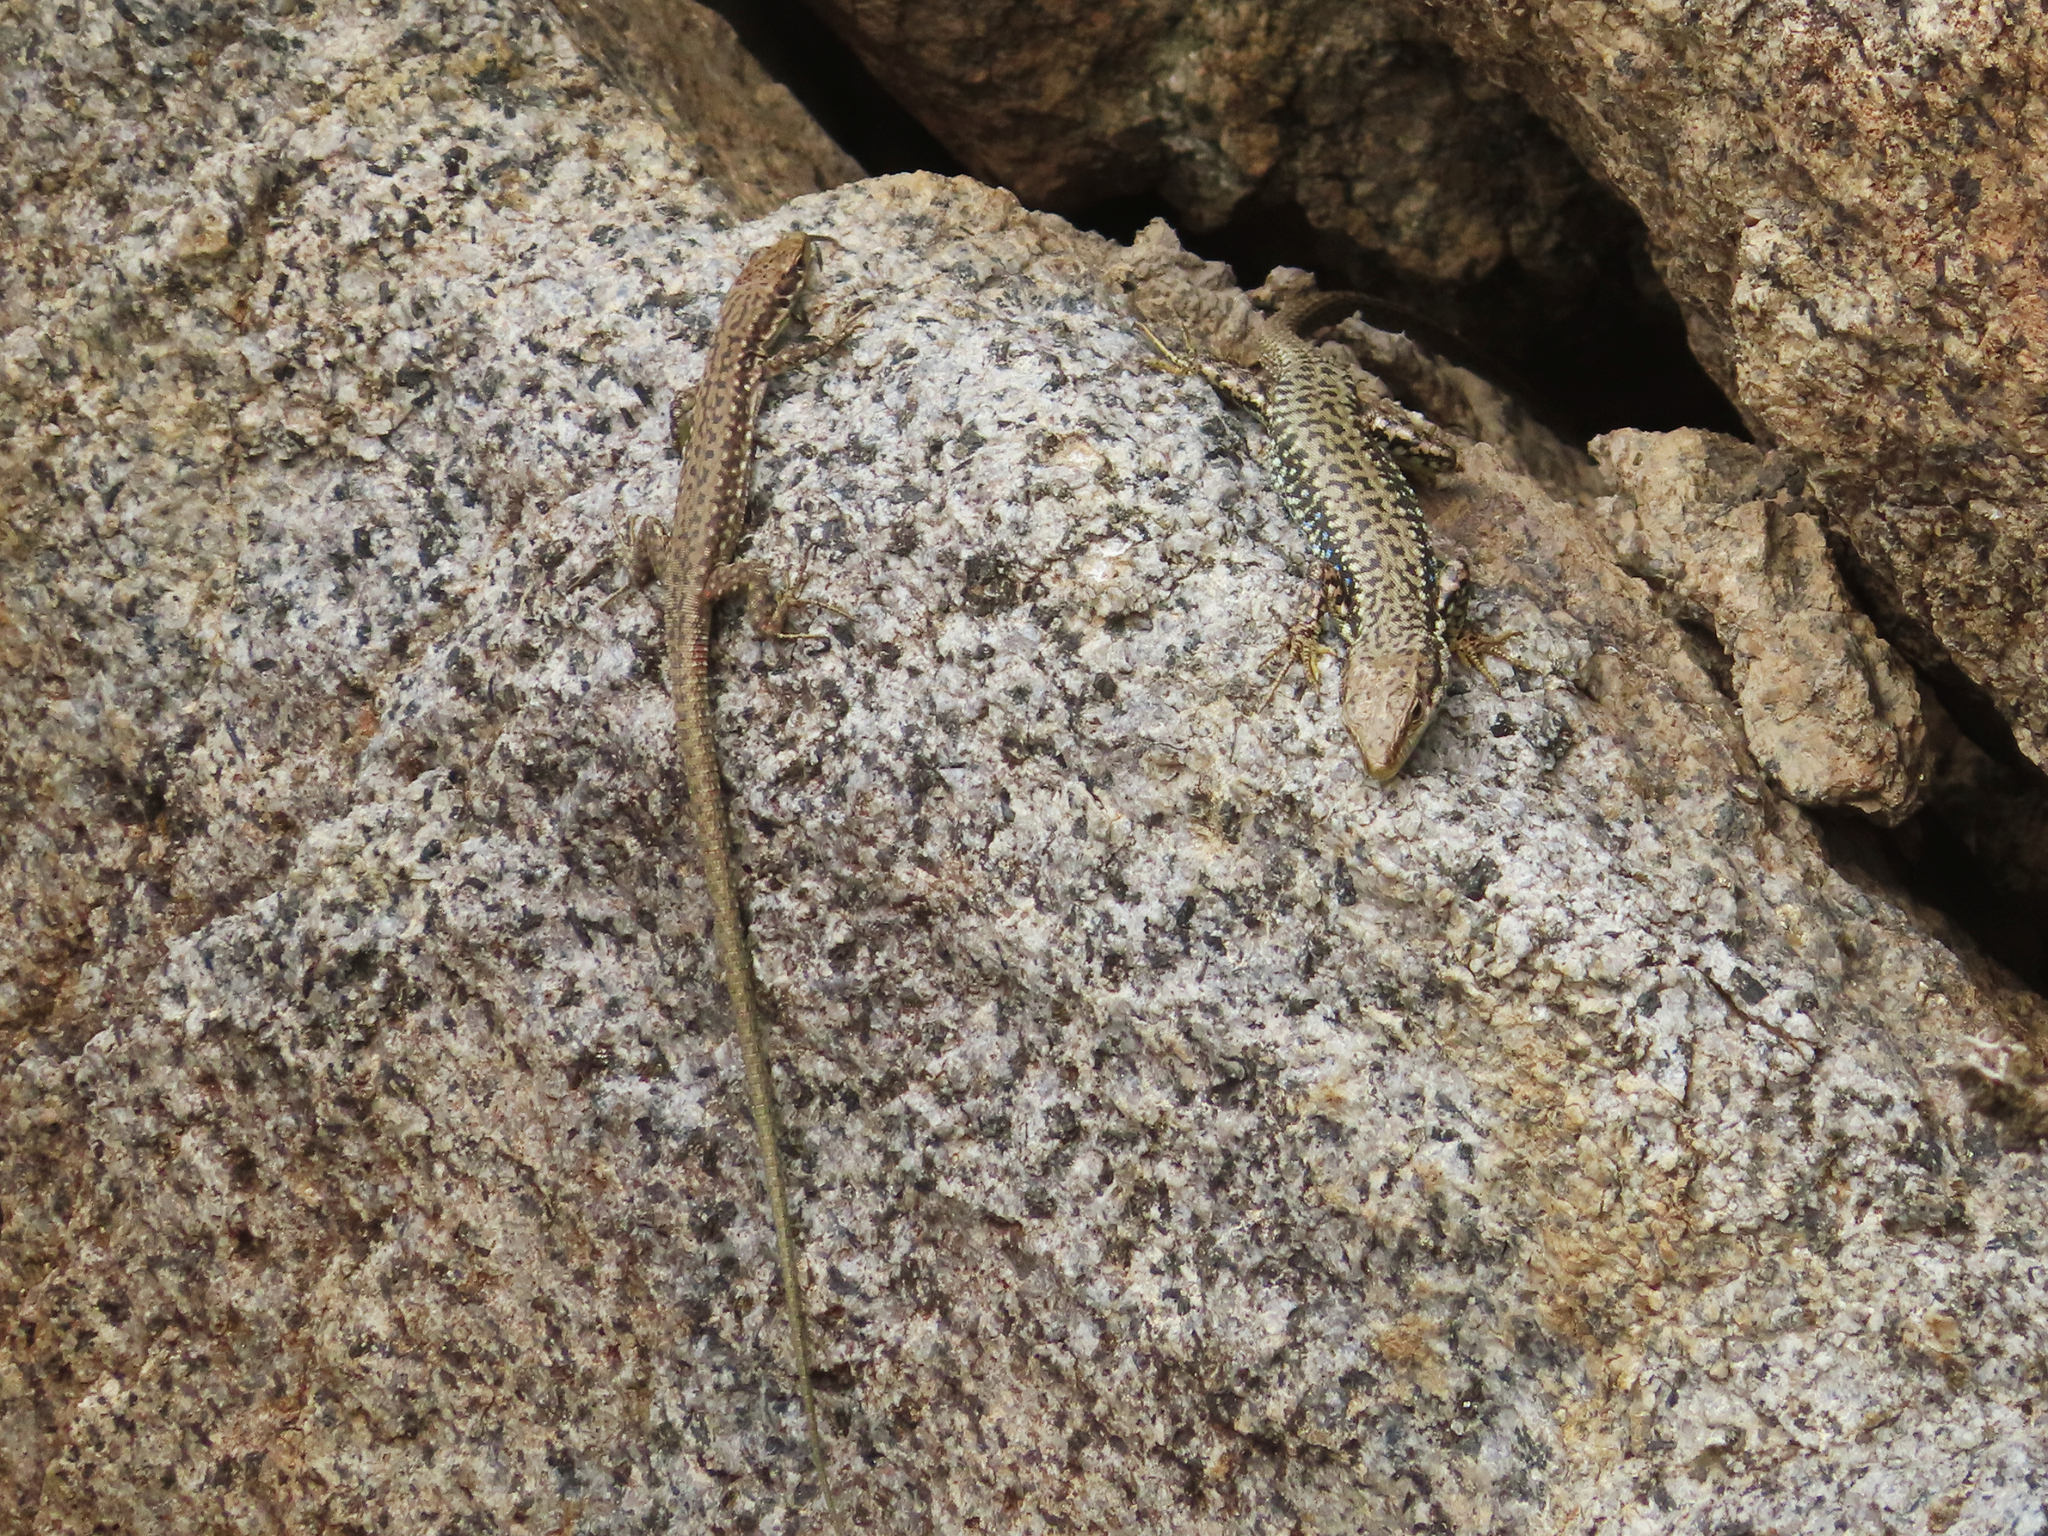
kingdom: Animalia
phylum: Chordata
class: Squamata
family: Lacertidae
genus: Darevskia
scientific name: Darevskia raddei
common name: Radde's lizard
